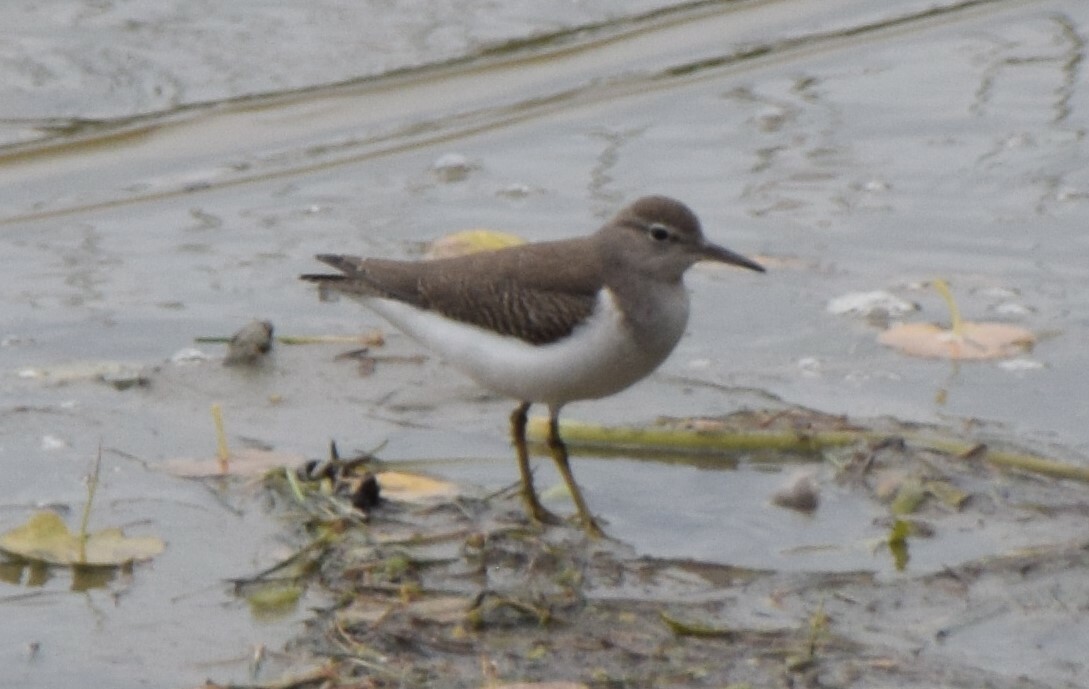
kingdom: Animalia
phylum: Chordata
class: Aves
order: Charadriiformes
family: Scolopacidae
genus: Actitis
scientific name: Actitis macularius
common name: Spotted sandpiper
